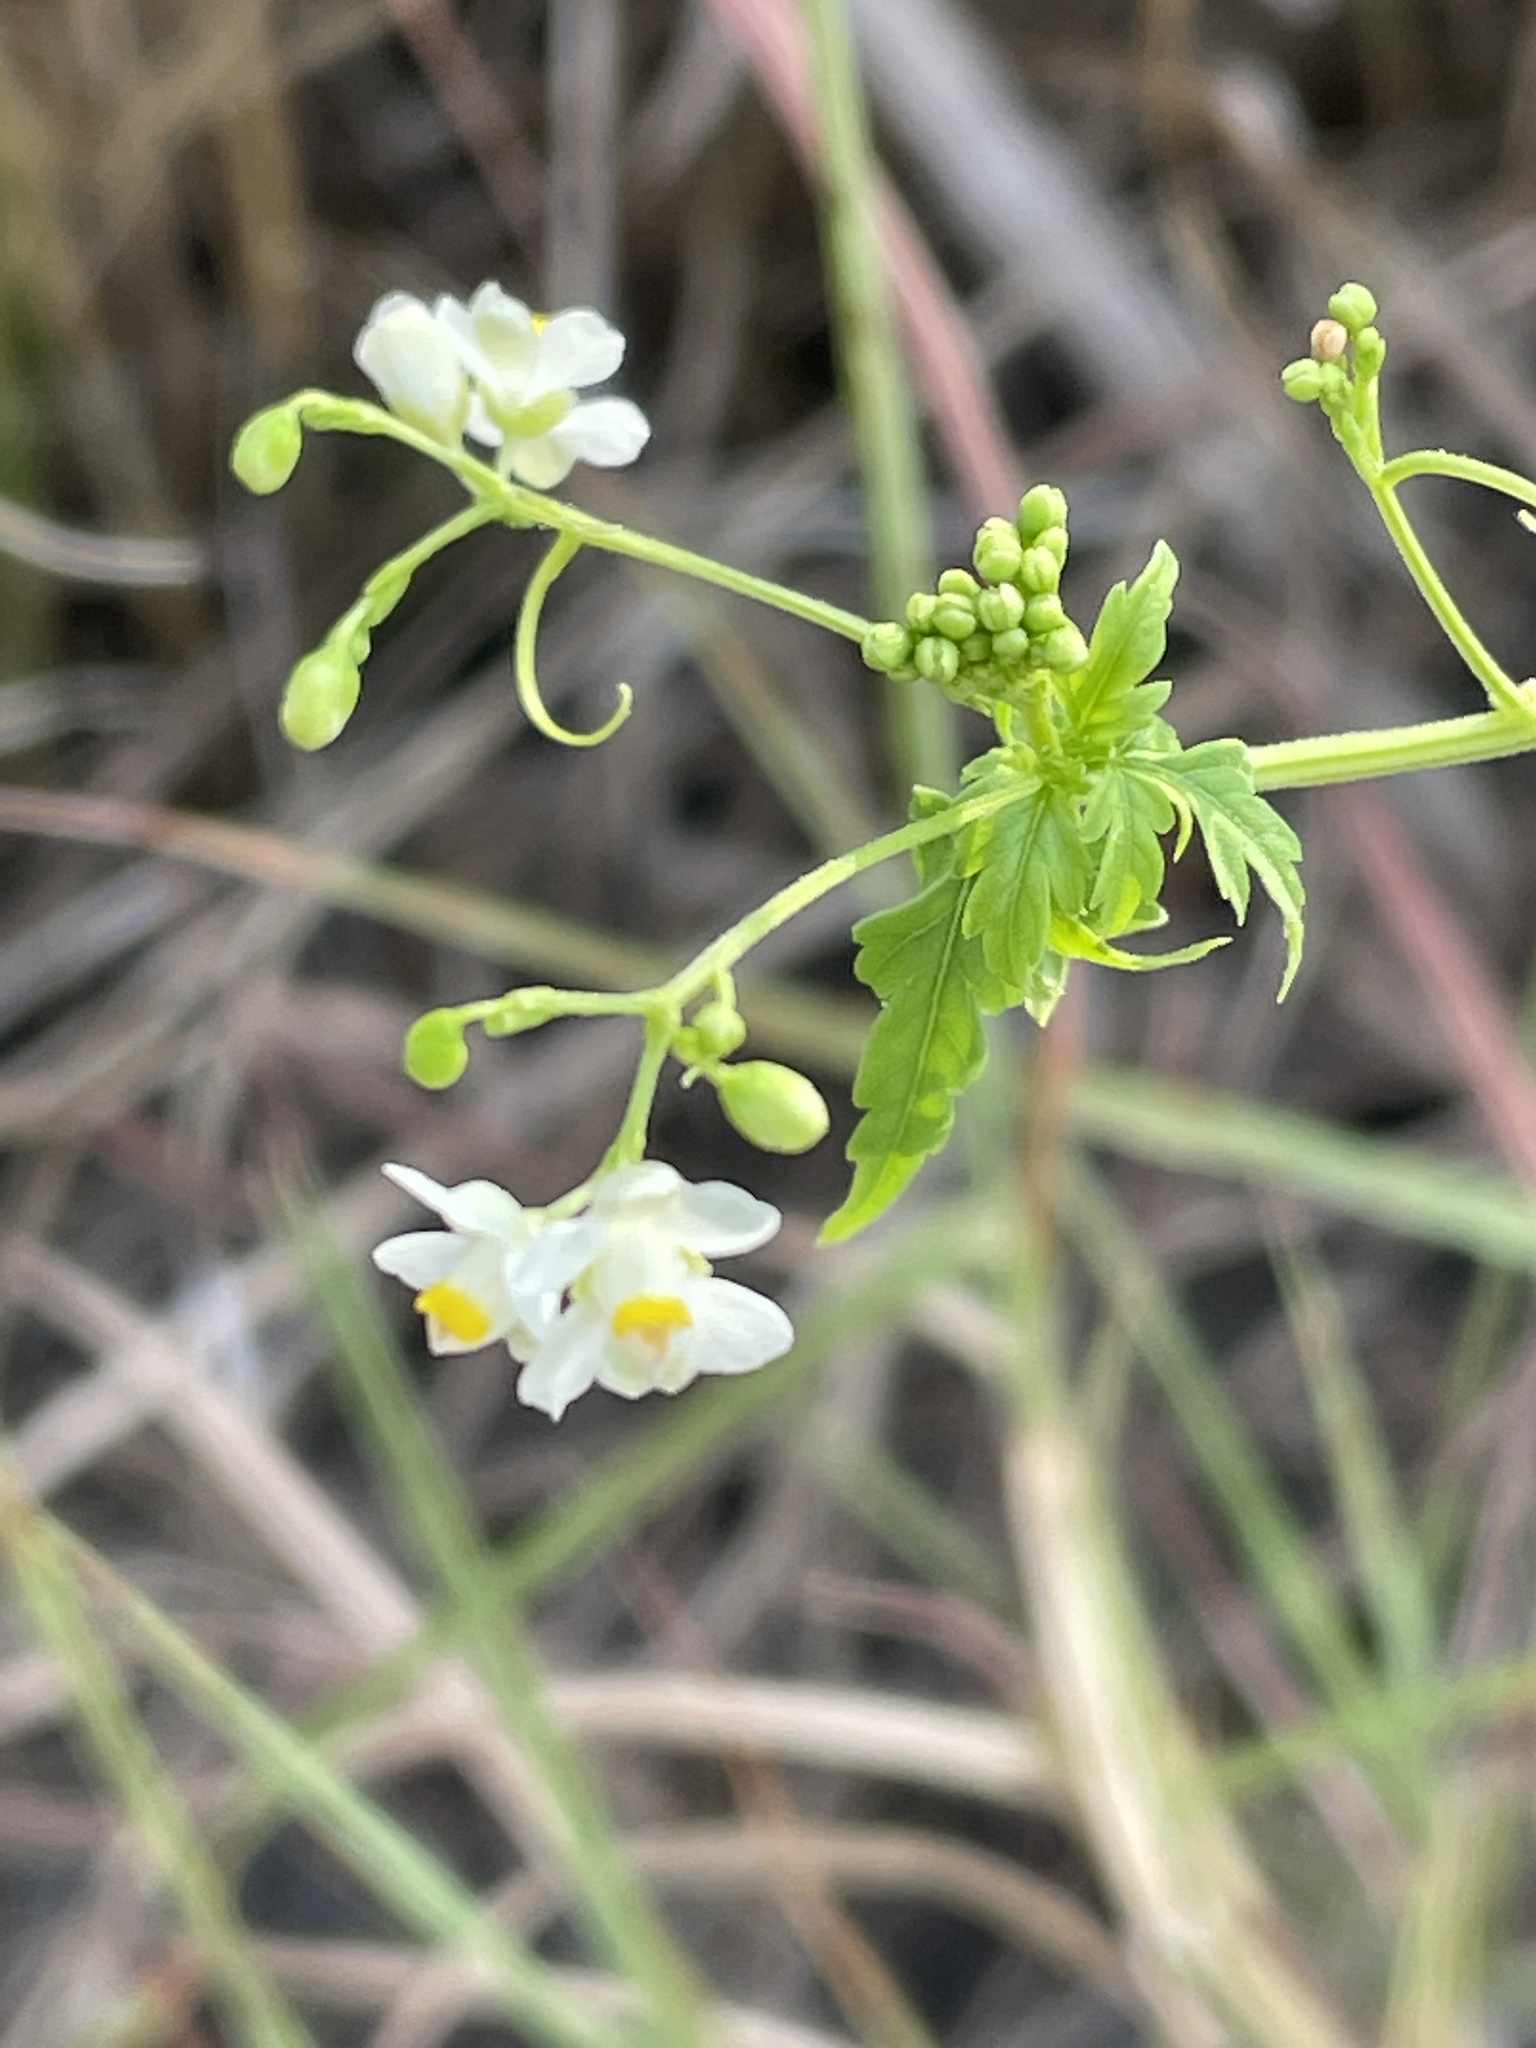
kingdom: Plantae
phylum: Tracheophyta
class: Magnoliopsida
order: Sapindales
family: Sapindaceae
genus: Cardiospermum
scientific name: Cardiospermum halicacabum
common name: Balloon vine
